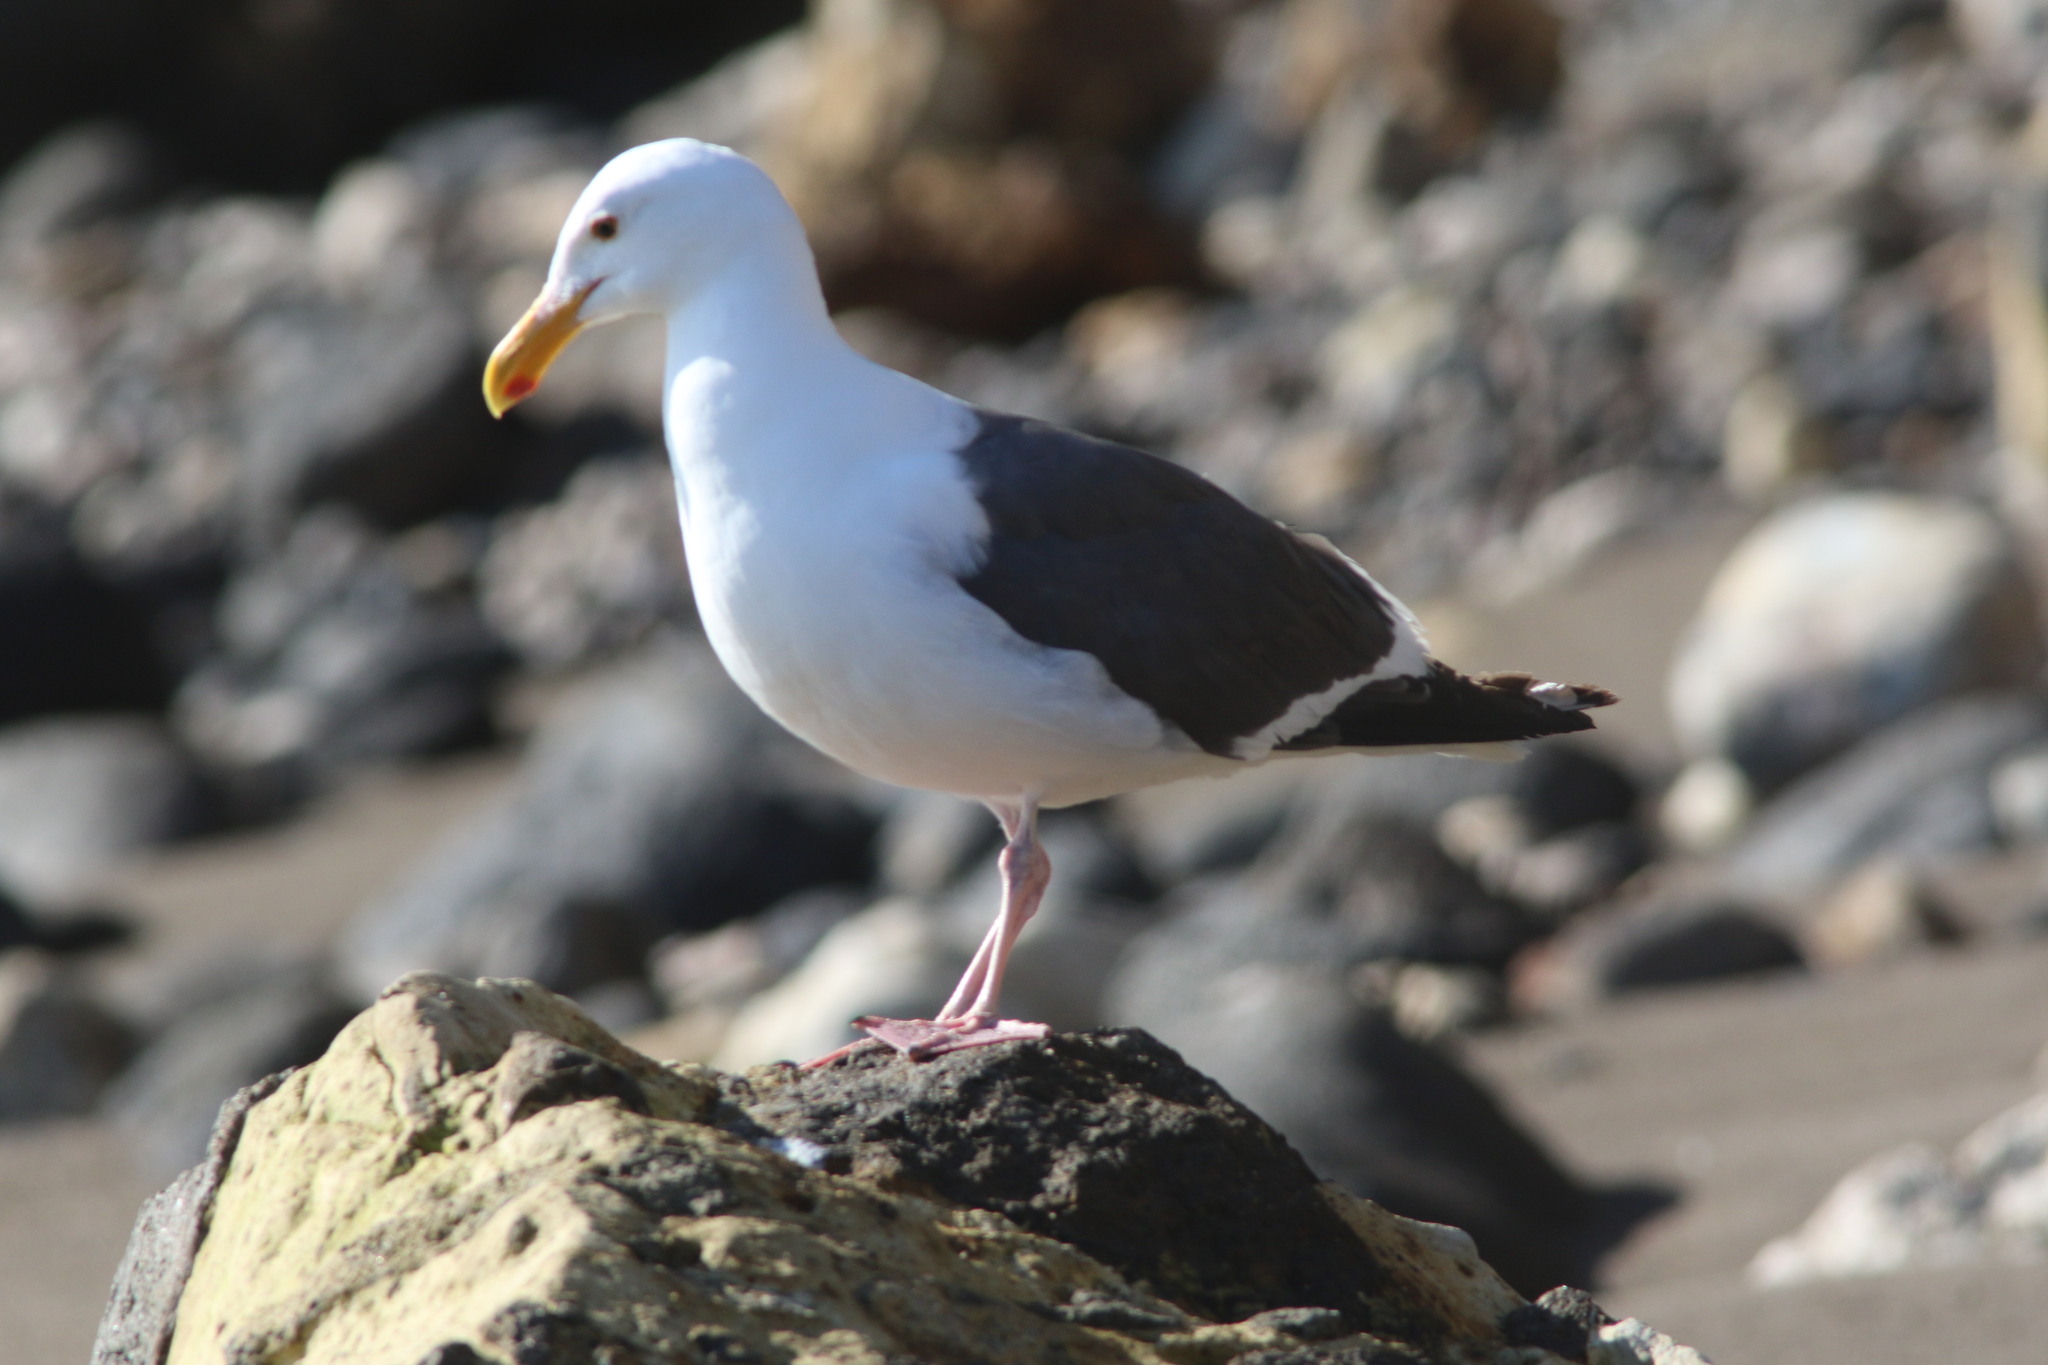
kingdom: Animalia
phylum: Chordata
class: Aves
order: Charadriiformes
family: Laridae
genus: Larus
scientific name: Larus occidentalis
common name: Western gull
